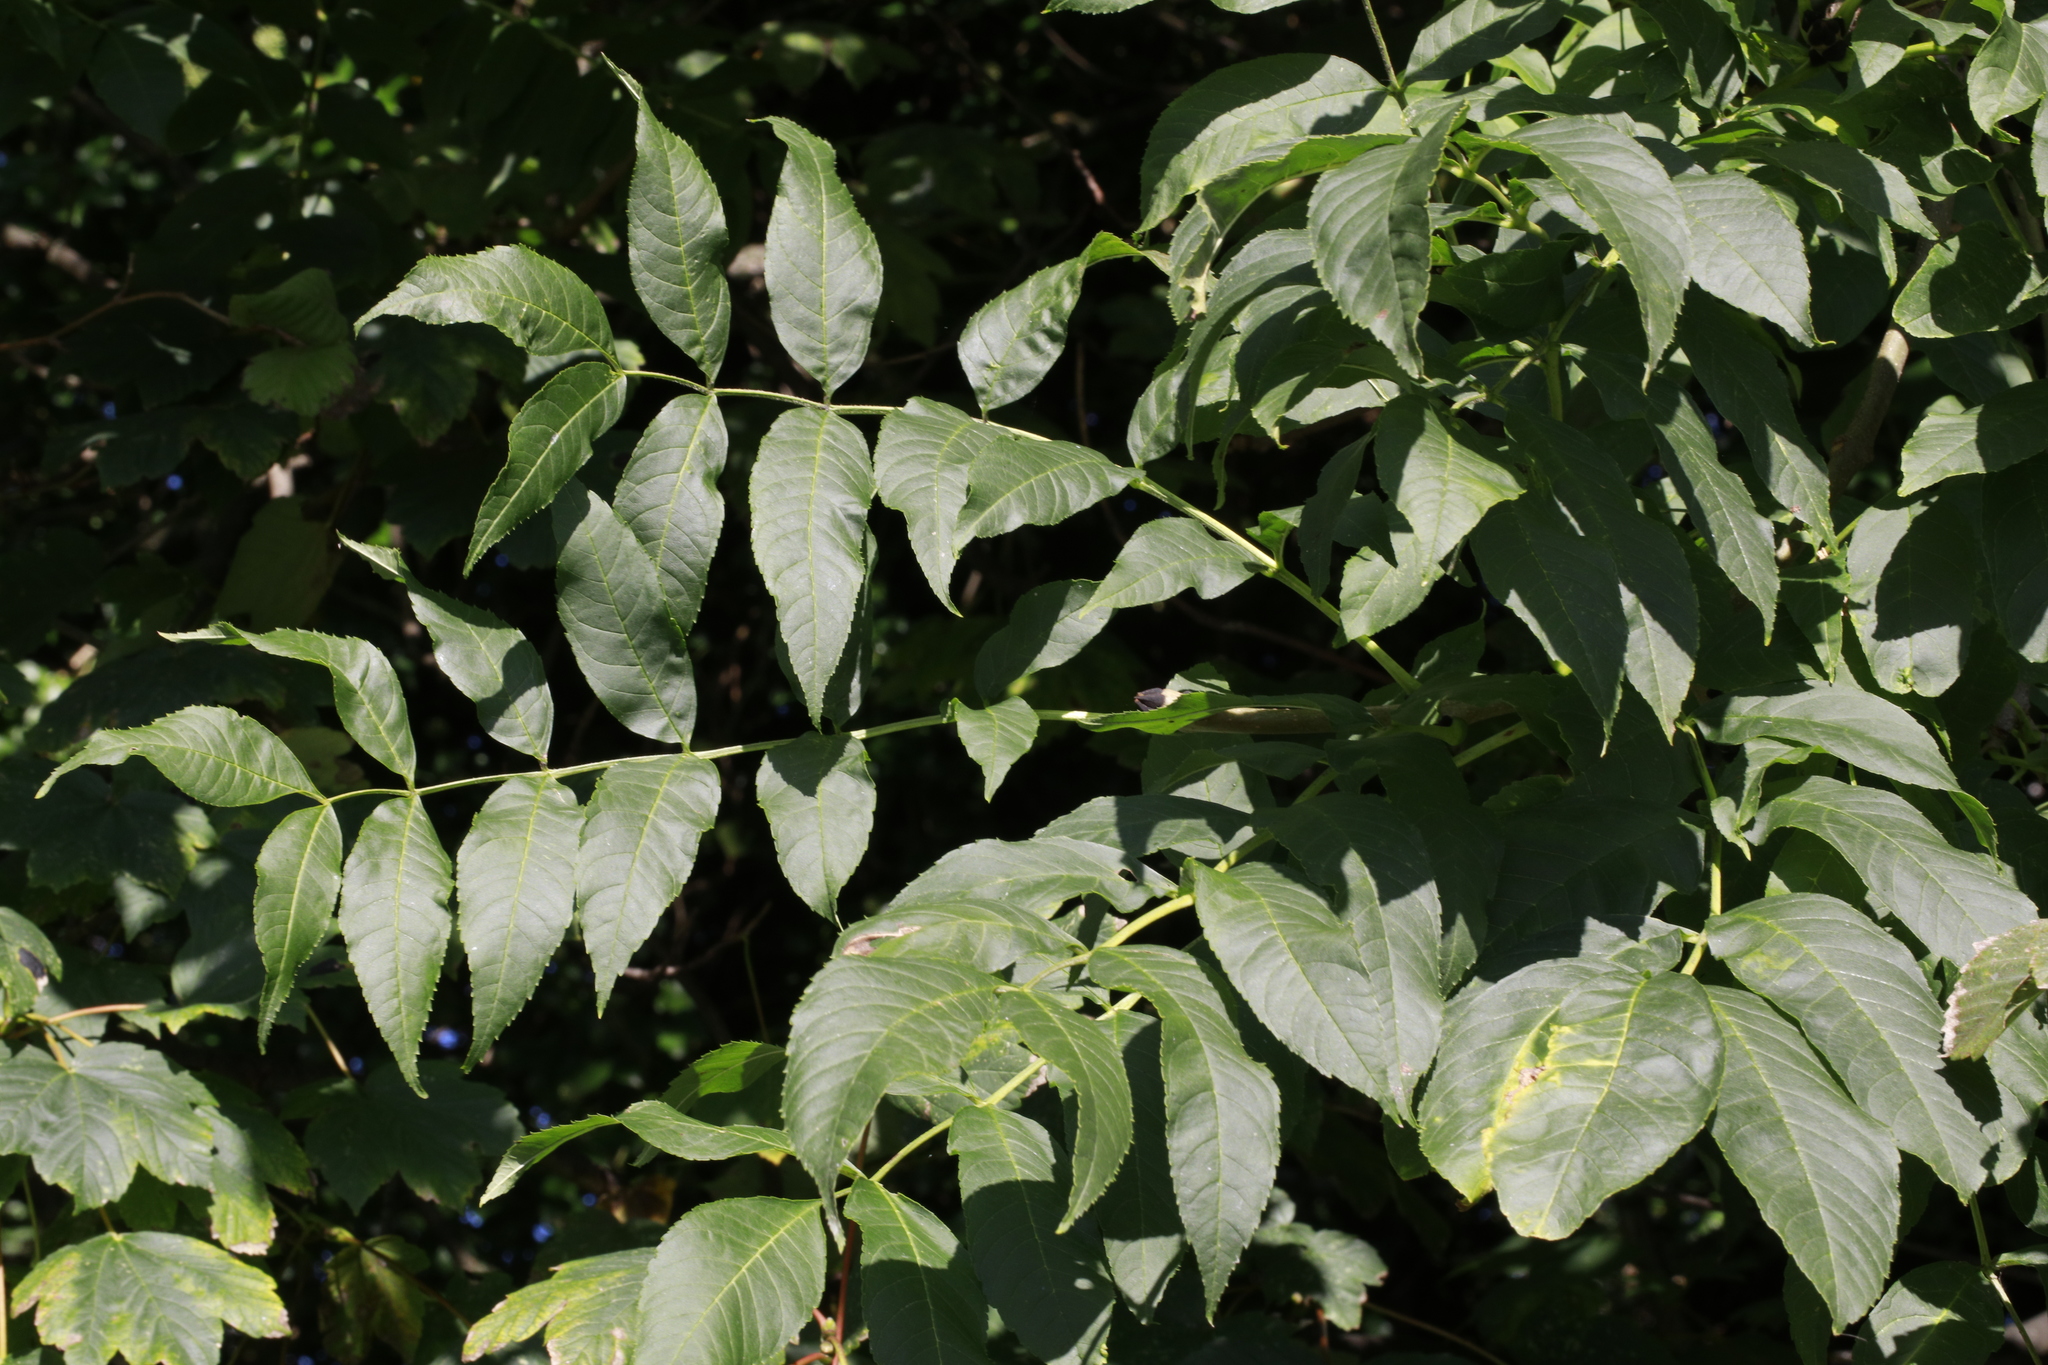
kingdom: Plantae
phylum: Tracheophyta
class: Magnoliopsida
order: Lamiales
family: Oleaceae
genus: Fraxinus
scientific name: Fraxinus excelsior
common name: European ash
